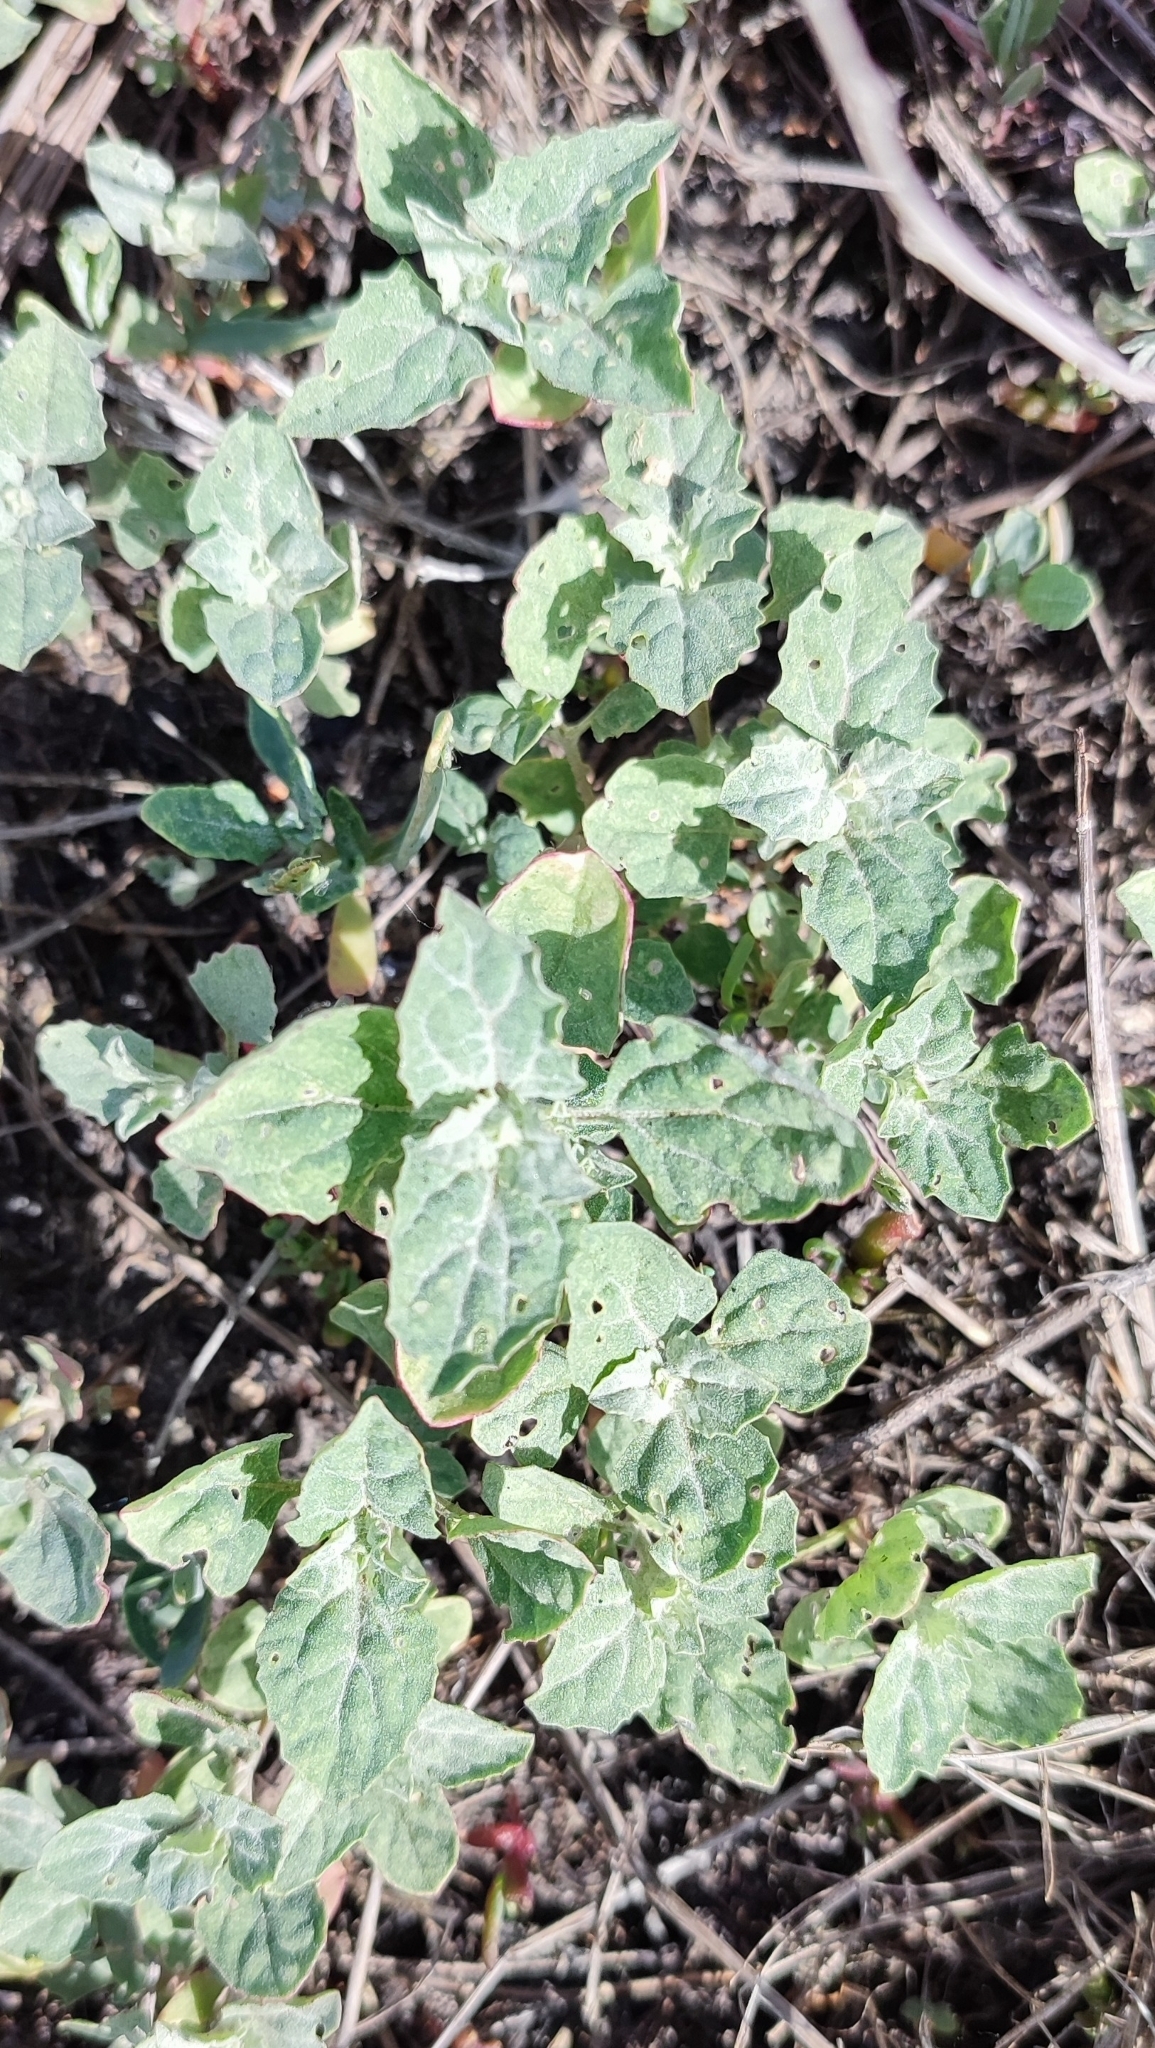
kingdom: Plantae
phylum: Tracheophyta
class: Magnoliopsida
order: Caryophyllales
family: Amaranthaceae
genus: Atriplex
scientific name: Atriplex tatarica
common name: Tatarian orache
